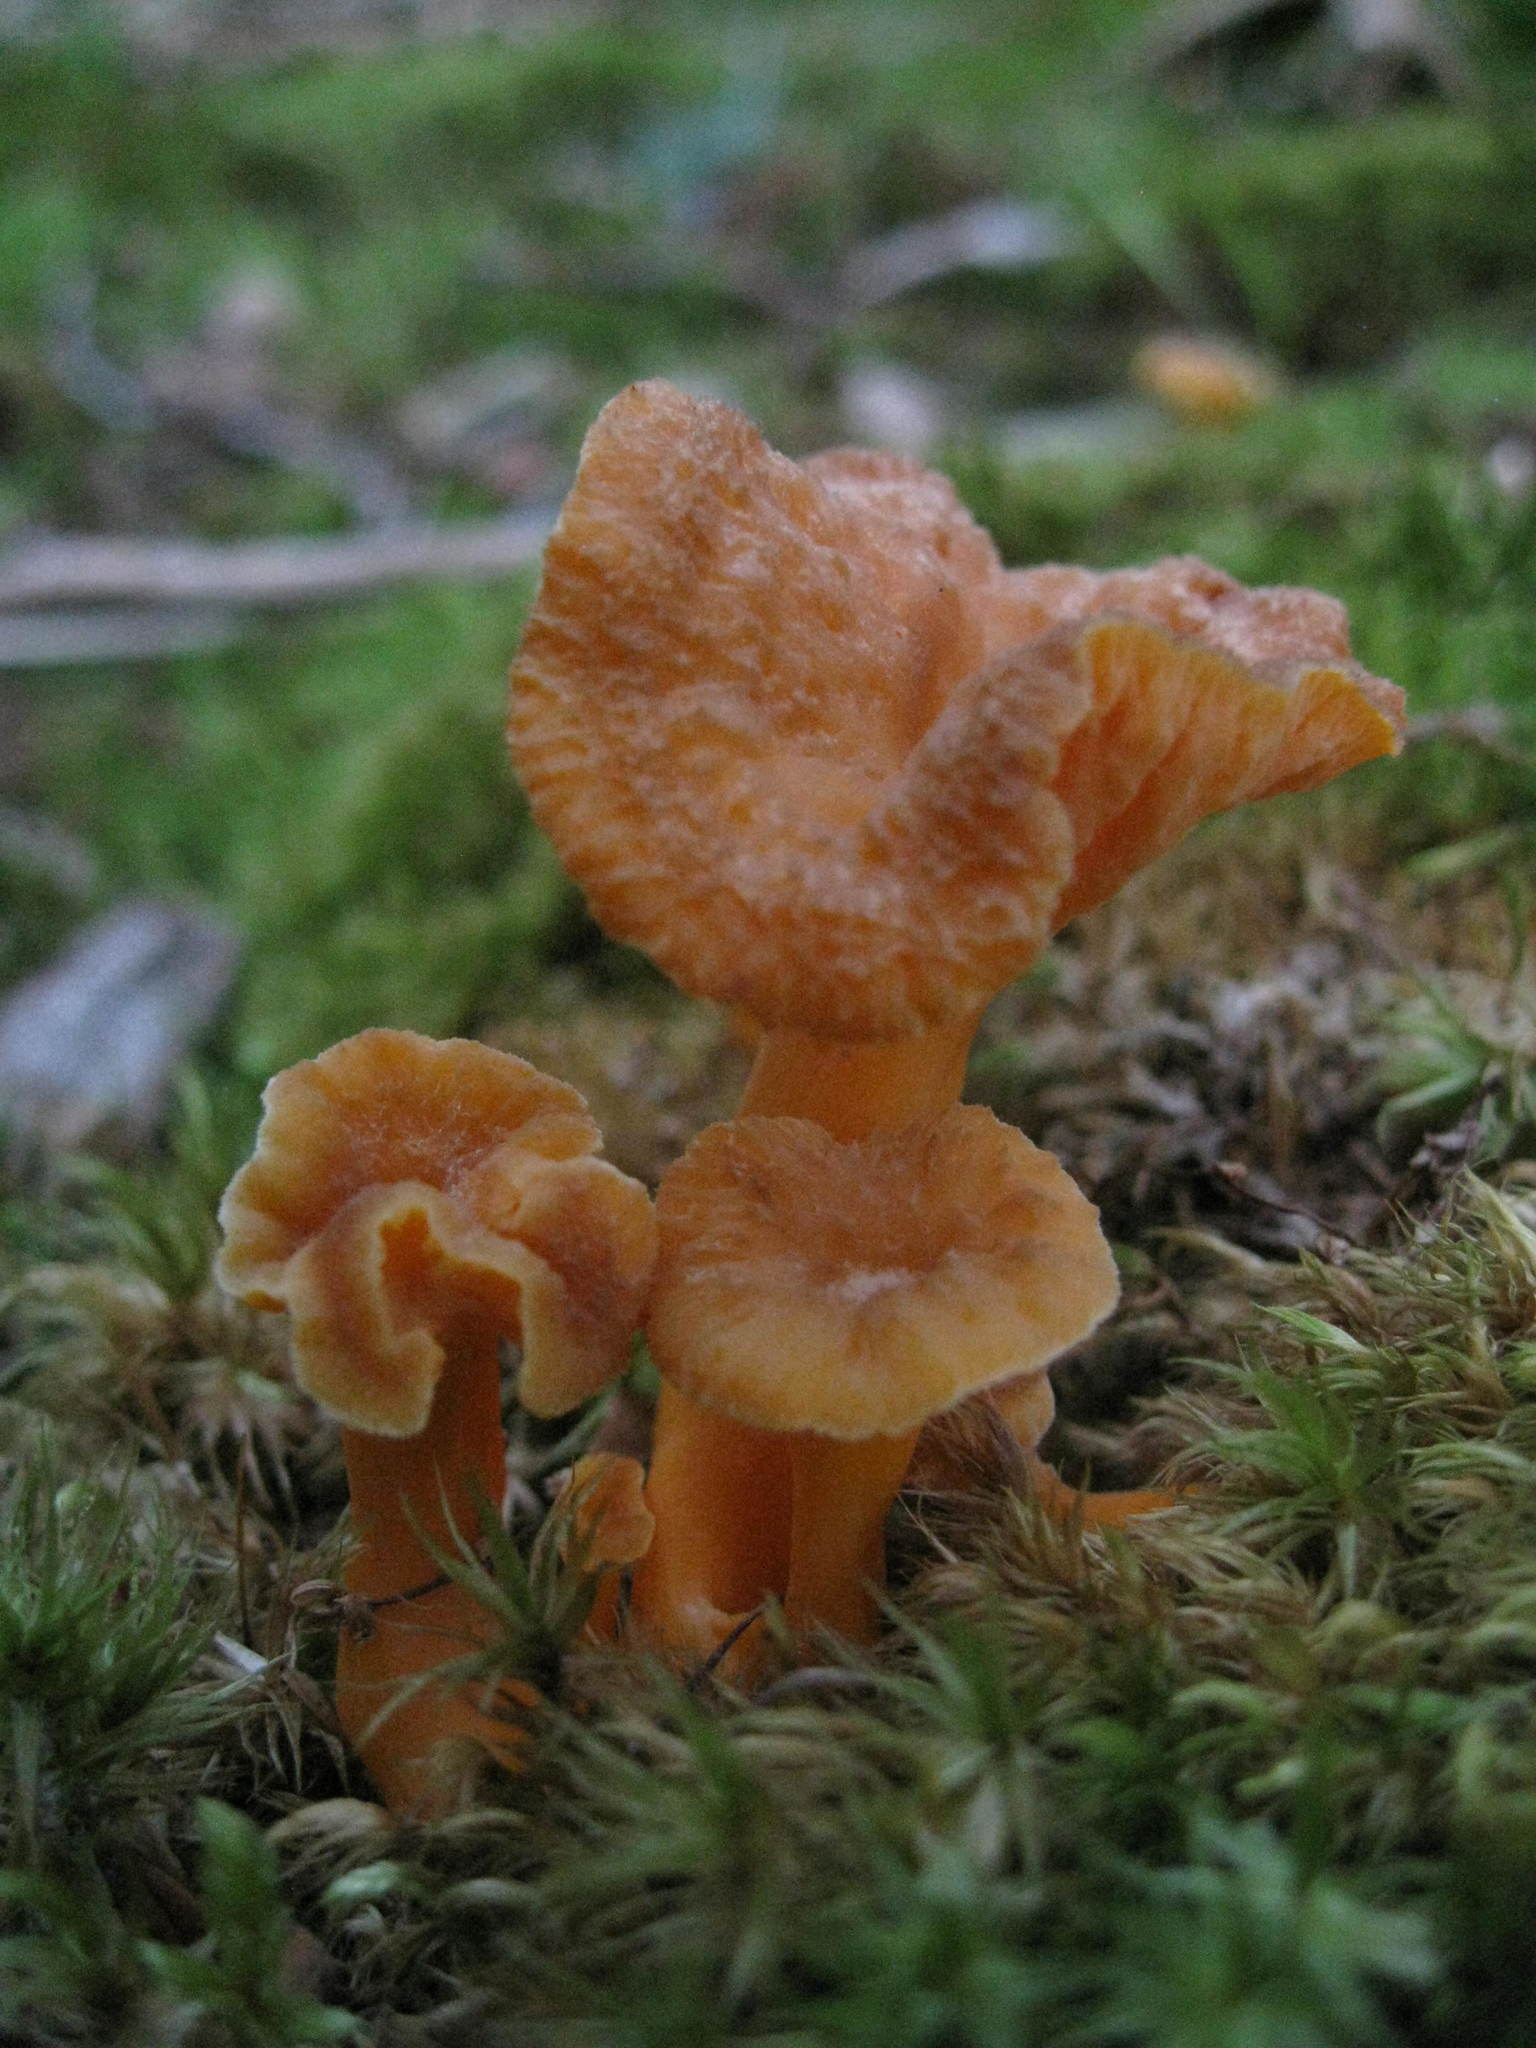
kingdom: Fungi
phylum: Basidiomycota
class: Agaricomycetes
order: Cantharellales
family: Hydnaceae
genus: Craterellus
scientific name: Craterellus tubaeformis
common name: Yellowfoot
